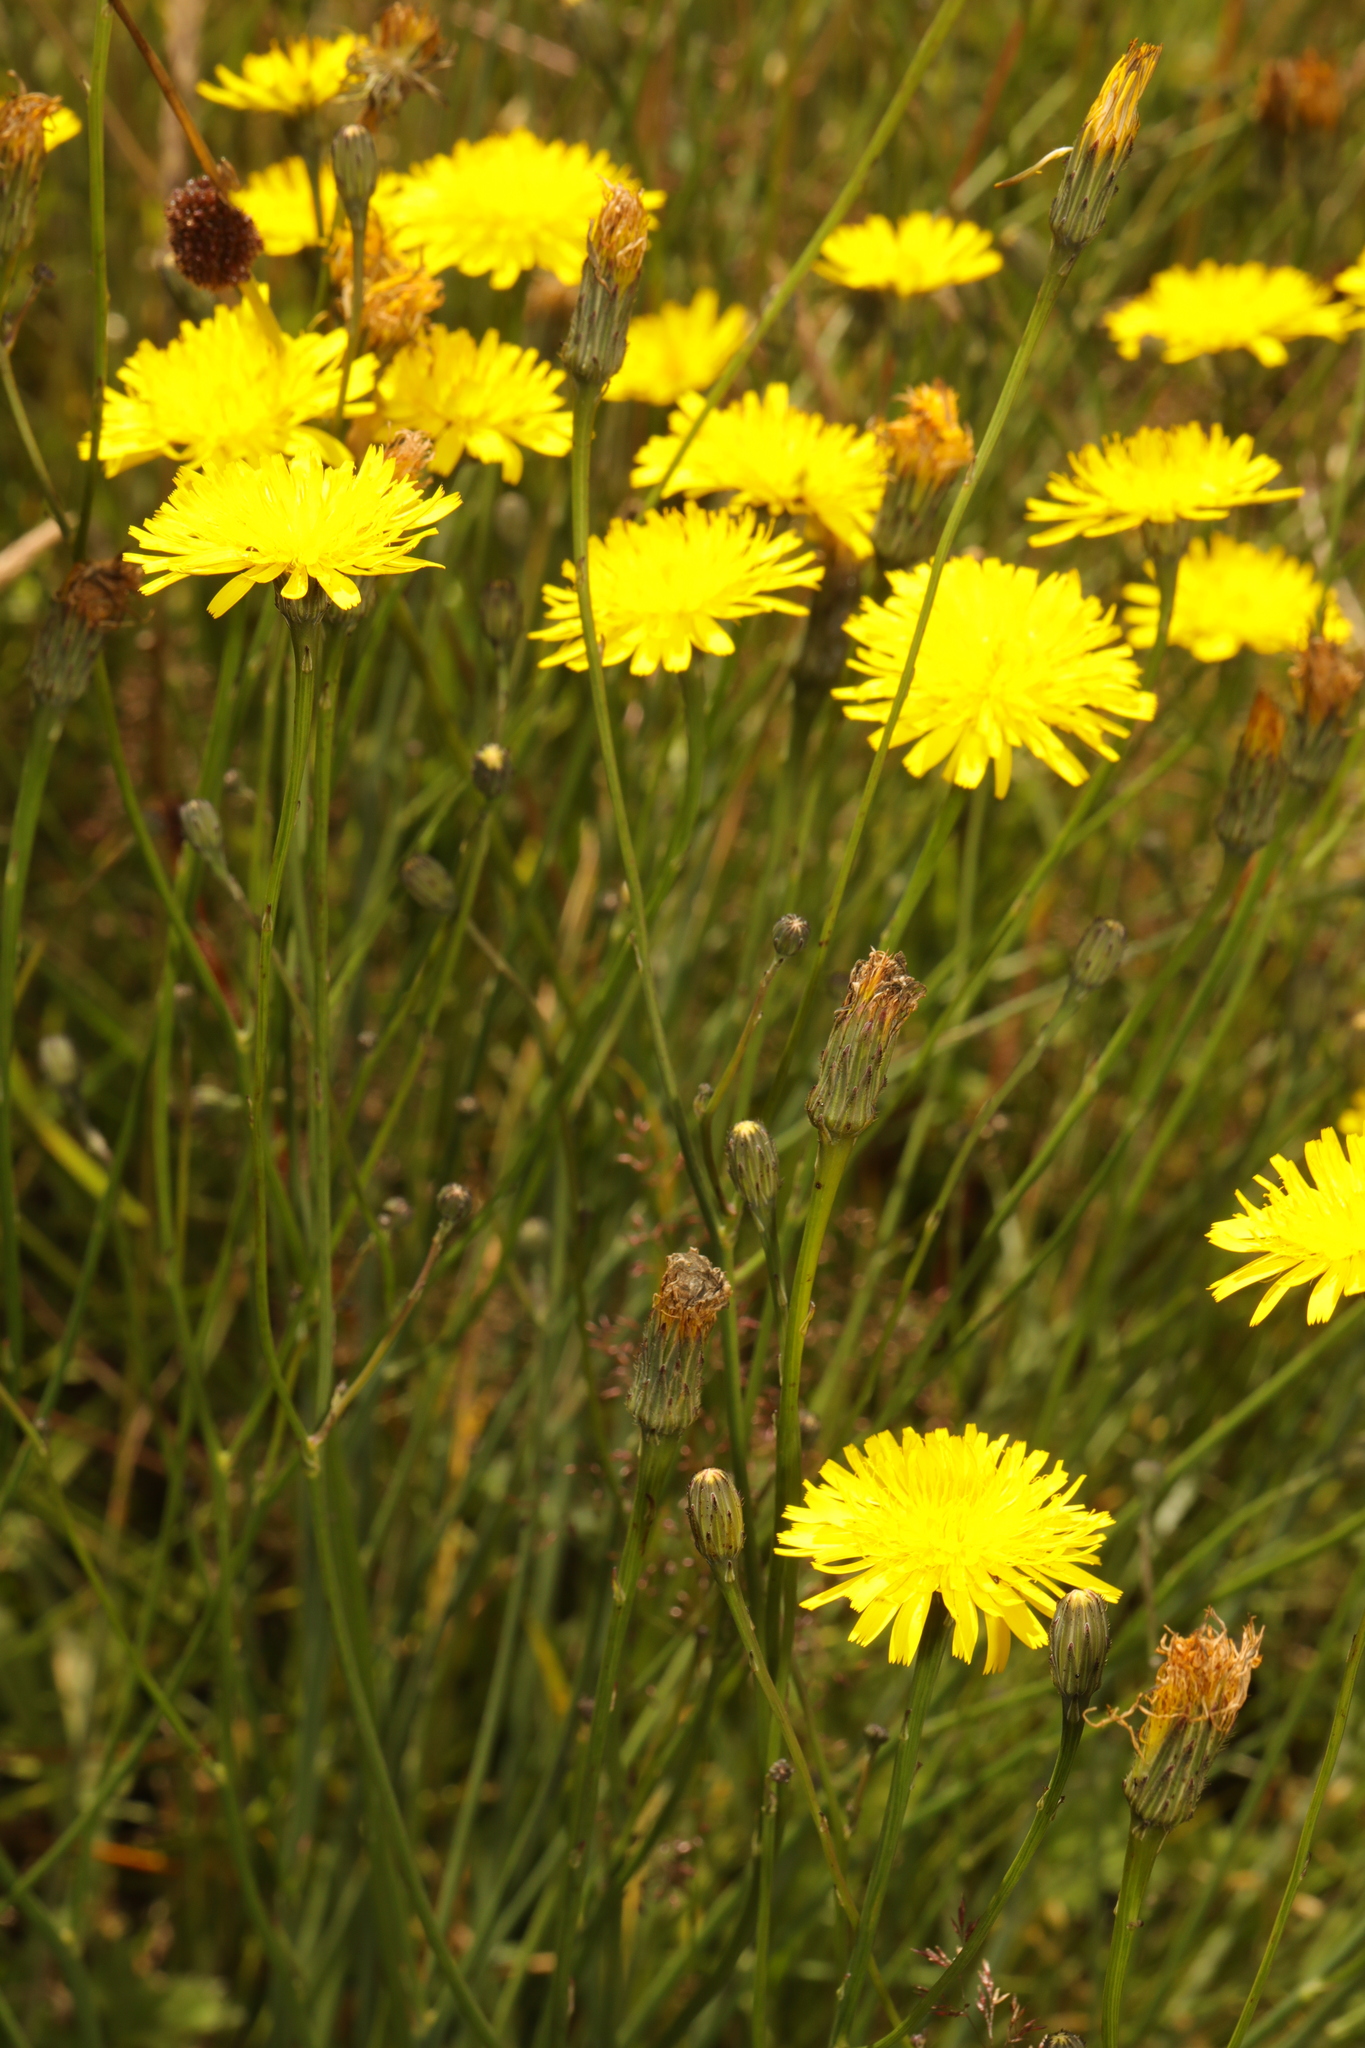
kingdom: Plantae
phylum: Tracheophyta
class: Magnoliopsida
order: Asterales
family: Asteraceae
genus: Crepis
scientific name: Crepis vesicaria
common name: Beaked hawksbeard
